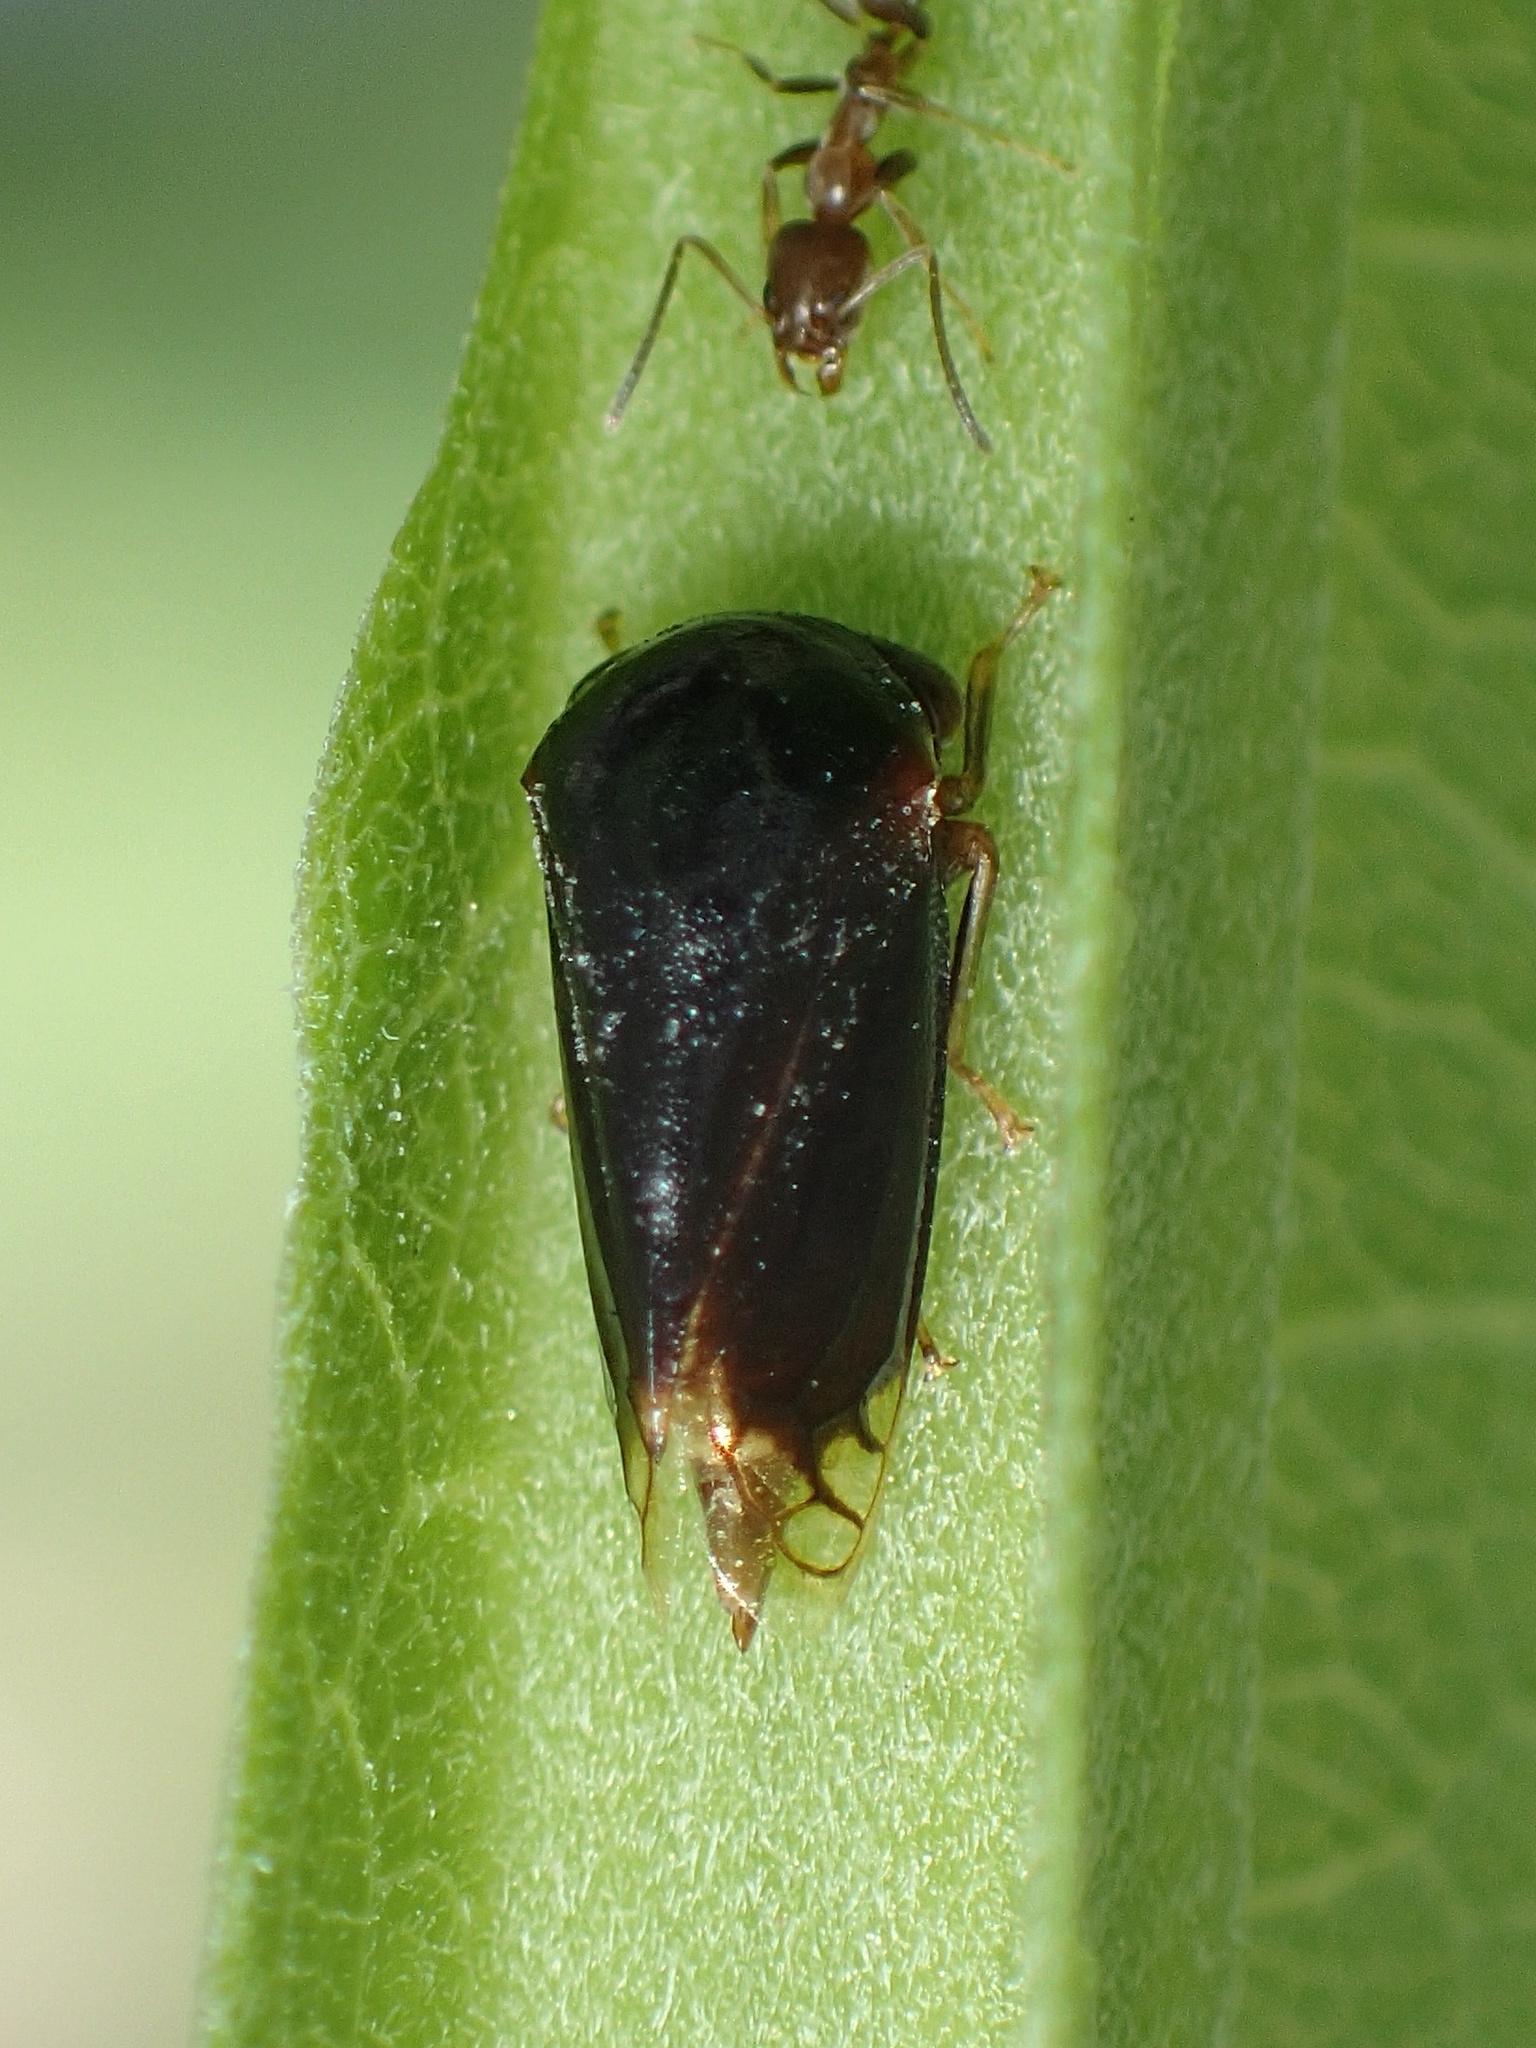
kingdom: Animalia
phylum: Arthropoda
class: Insecta
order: Hemiptera
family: Membracidae
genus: Acutalis
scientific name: Acutalis tartarea
